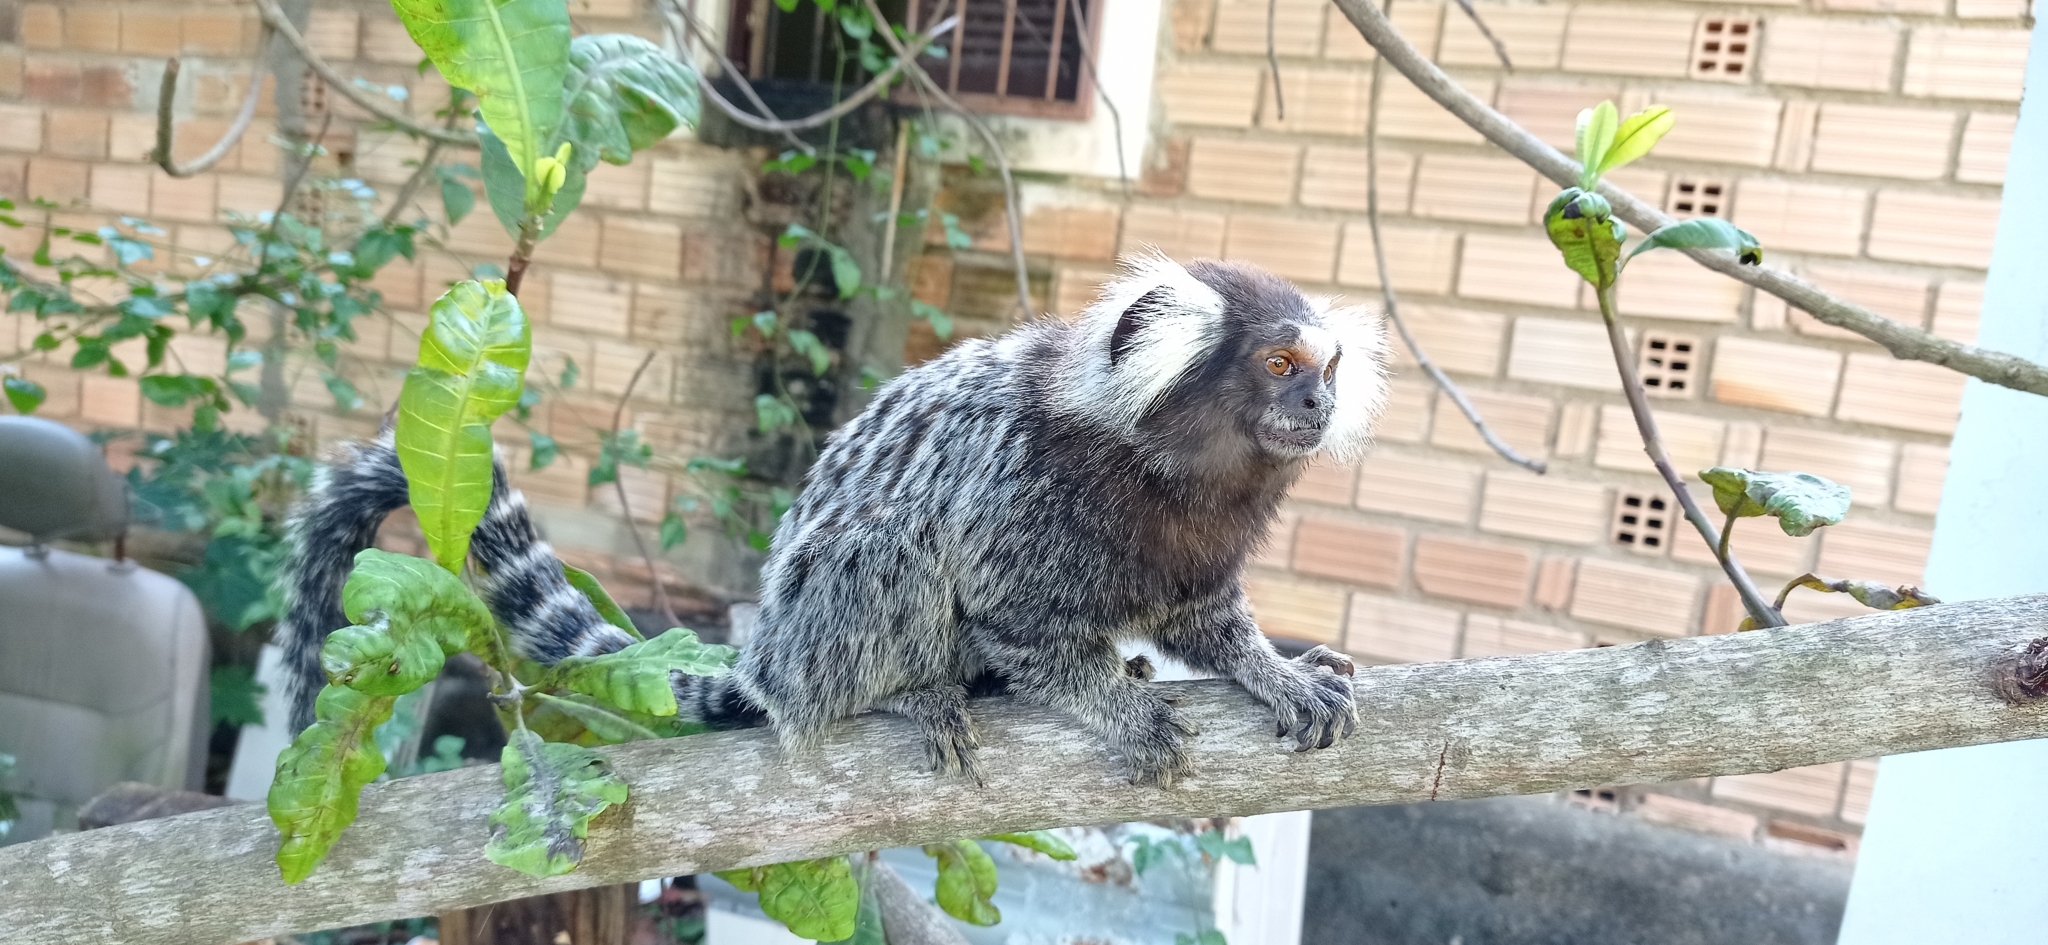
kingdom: Animalia
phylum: Chordata
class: Mammalia
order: Primates
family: Callitrichidae
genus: Callithrix
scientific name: Callithrix jacchus
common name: Common marmoset
